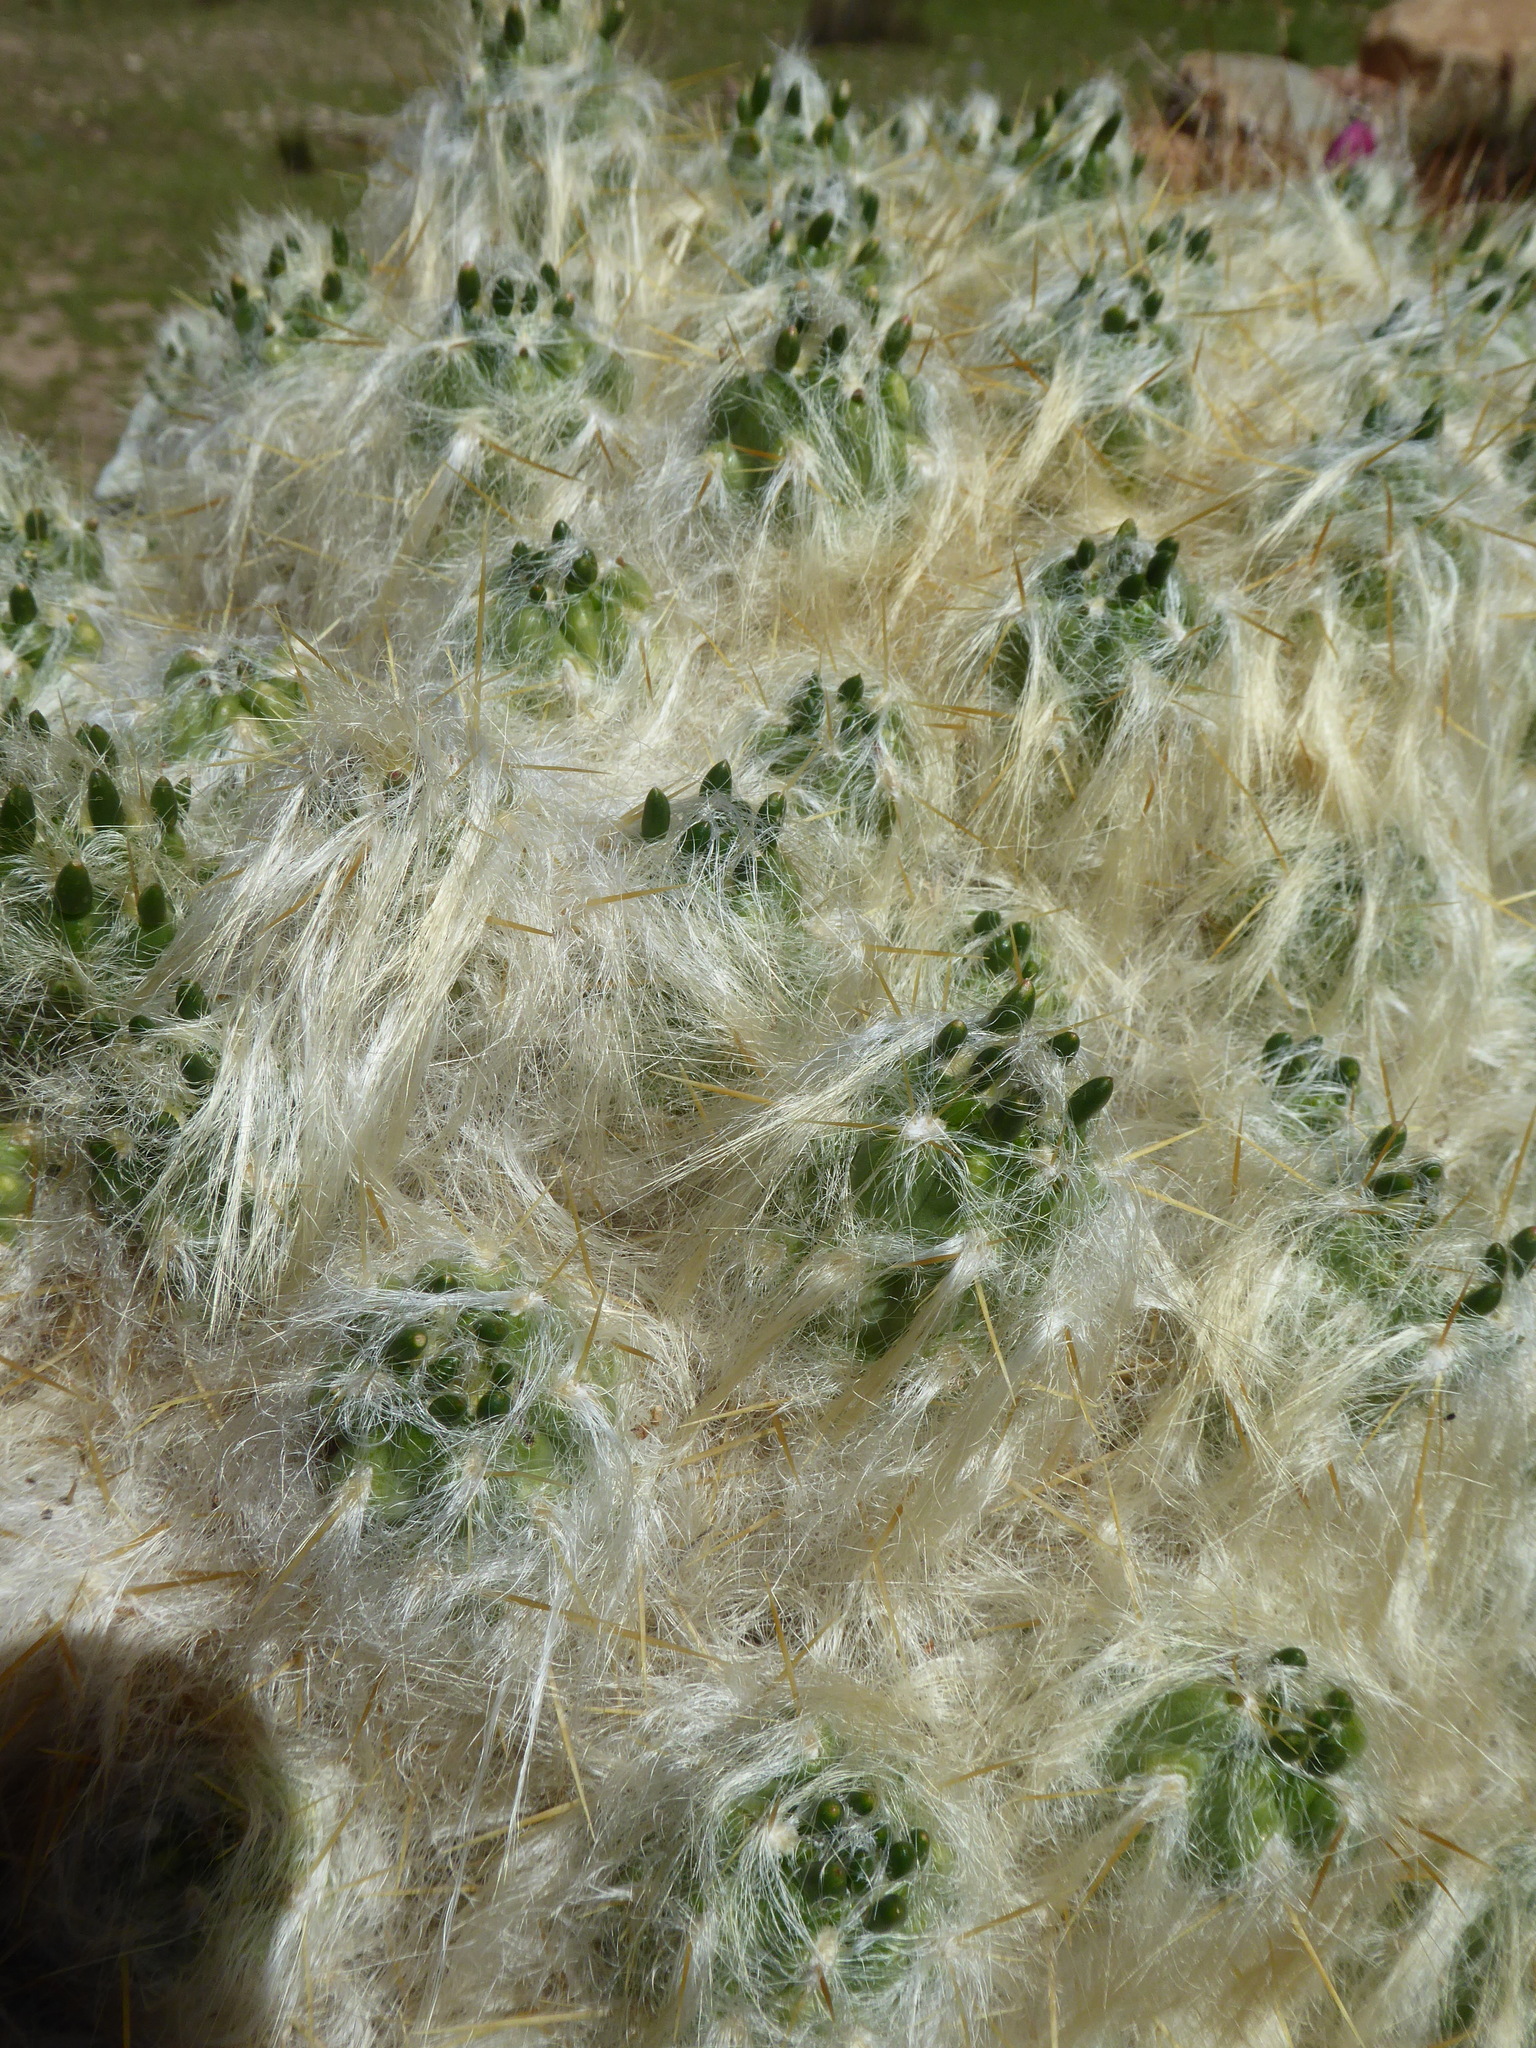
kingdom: Plantae
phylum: Tracheophyta
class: Magnoliopsida
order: Caryophyllales
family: Cactaceae
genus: Austrocylindropuntia
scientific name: Austrocylindropuntia floccosa
